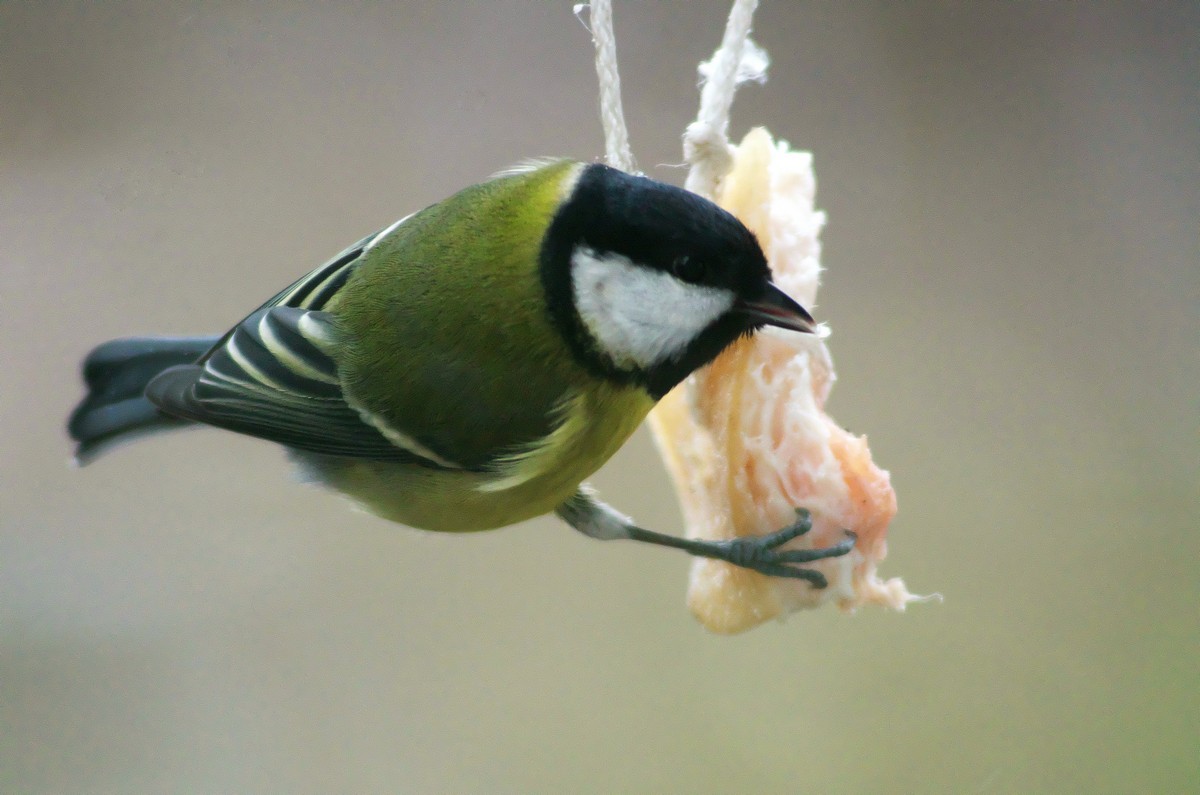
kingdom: Animalia
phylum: Chordata
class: Aves
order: Passeriformes
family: Paridae
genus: Parus
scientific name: Parus major
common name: Great tit
